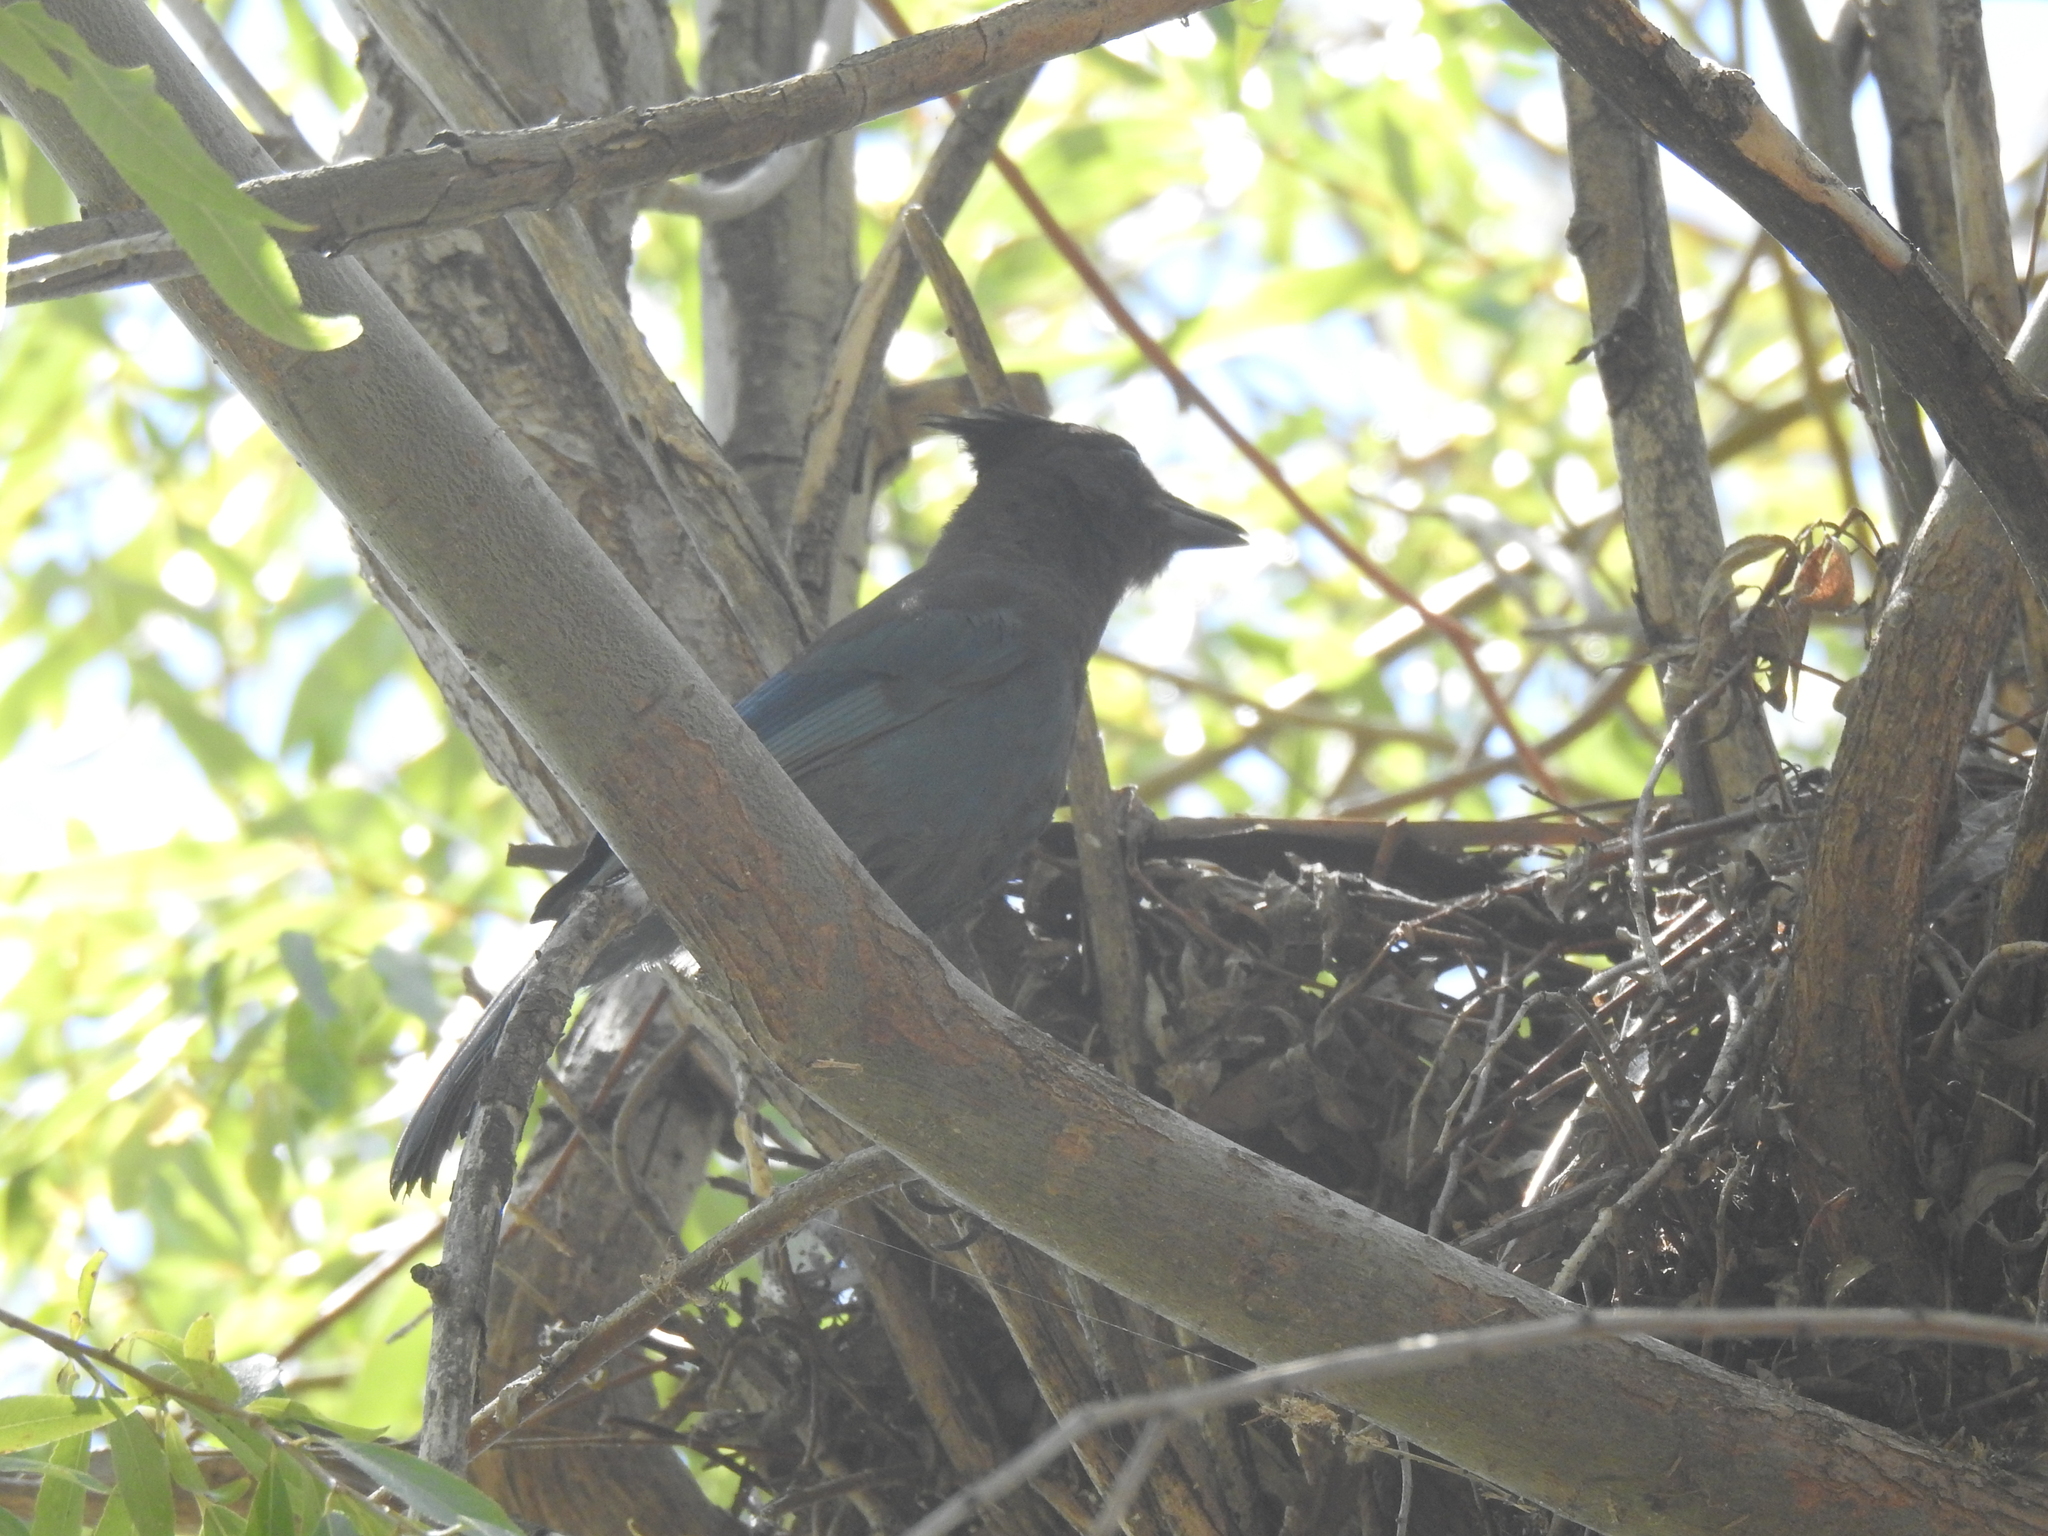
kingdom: Animalia
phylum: Chordata
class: Aves
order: Passeriformes
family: Corvidae
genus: Cyanocitta
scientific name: Cyanocitta stelleri
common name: Steller's jay
